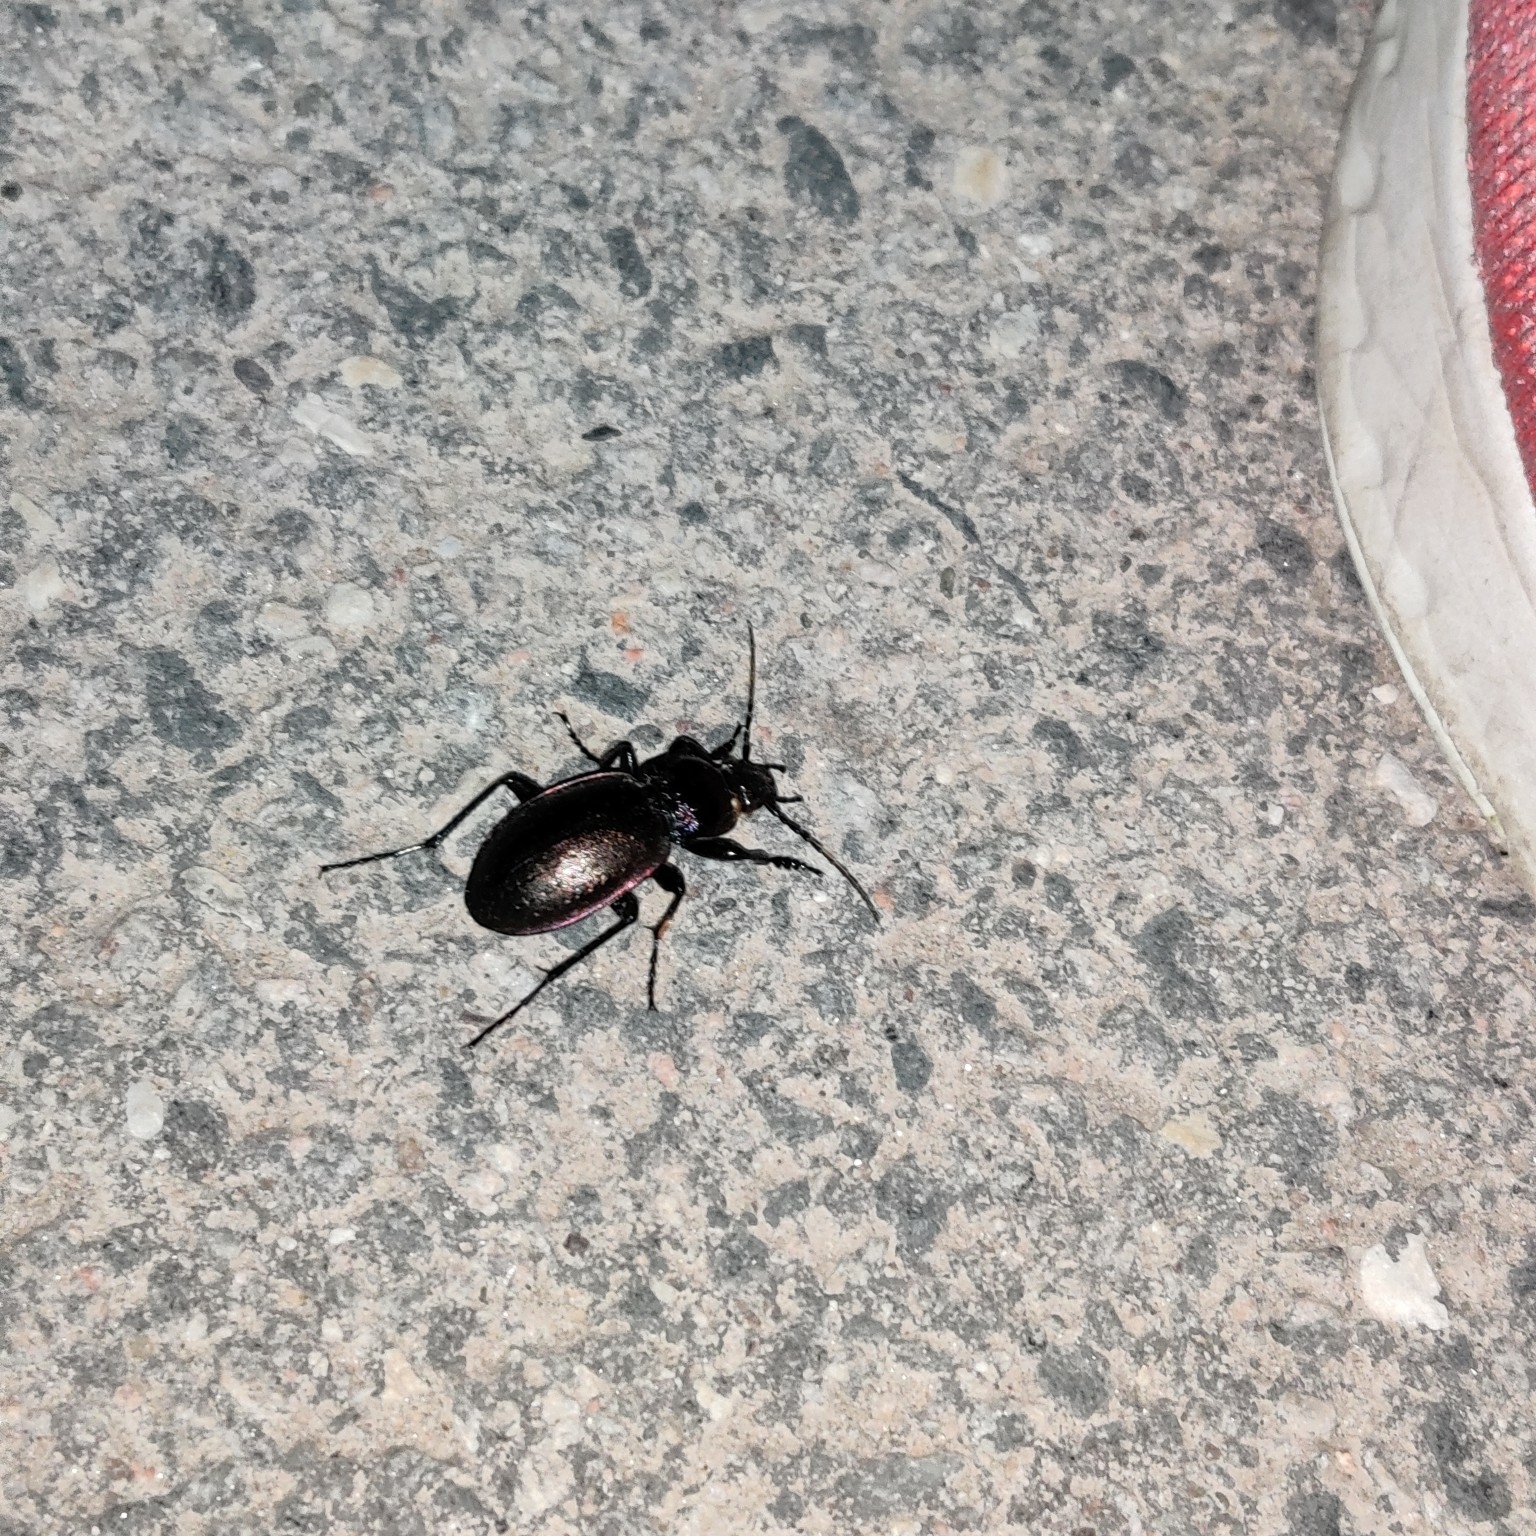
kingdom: Animalia
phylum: Arthropoda
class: Insecta
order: Coleoptera
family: Carabidae
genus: Carabus
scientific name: Carabus nemoralis
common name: European ground beetle
